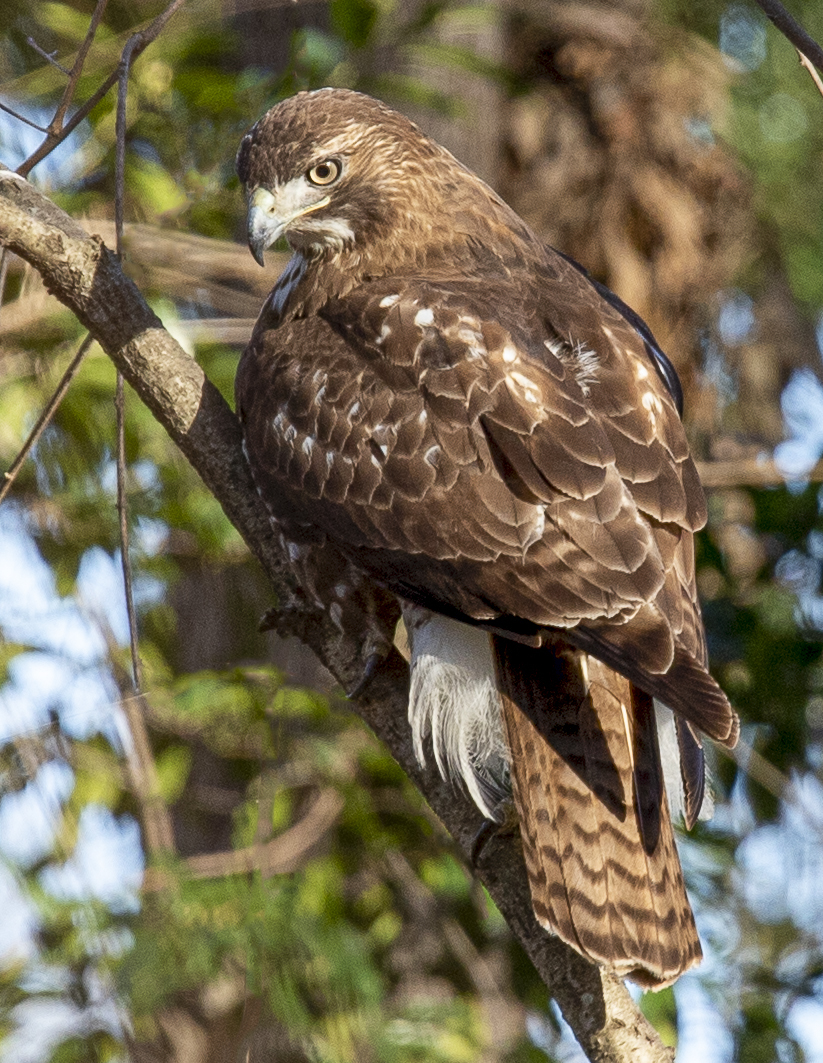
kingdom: Animalia
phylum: Chordata
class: Aves
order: Accipitriformes
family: Accipitridae
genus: Buteo
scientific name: Buteo jamaicensis
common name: Red-tailed hawk
